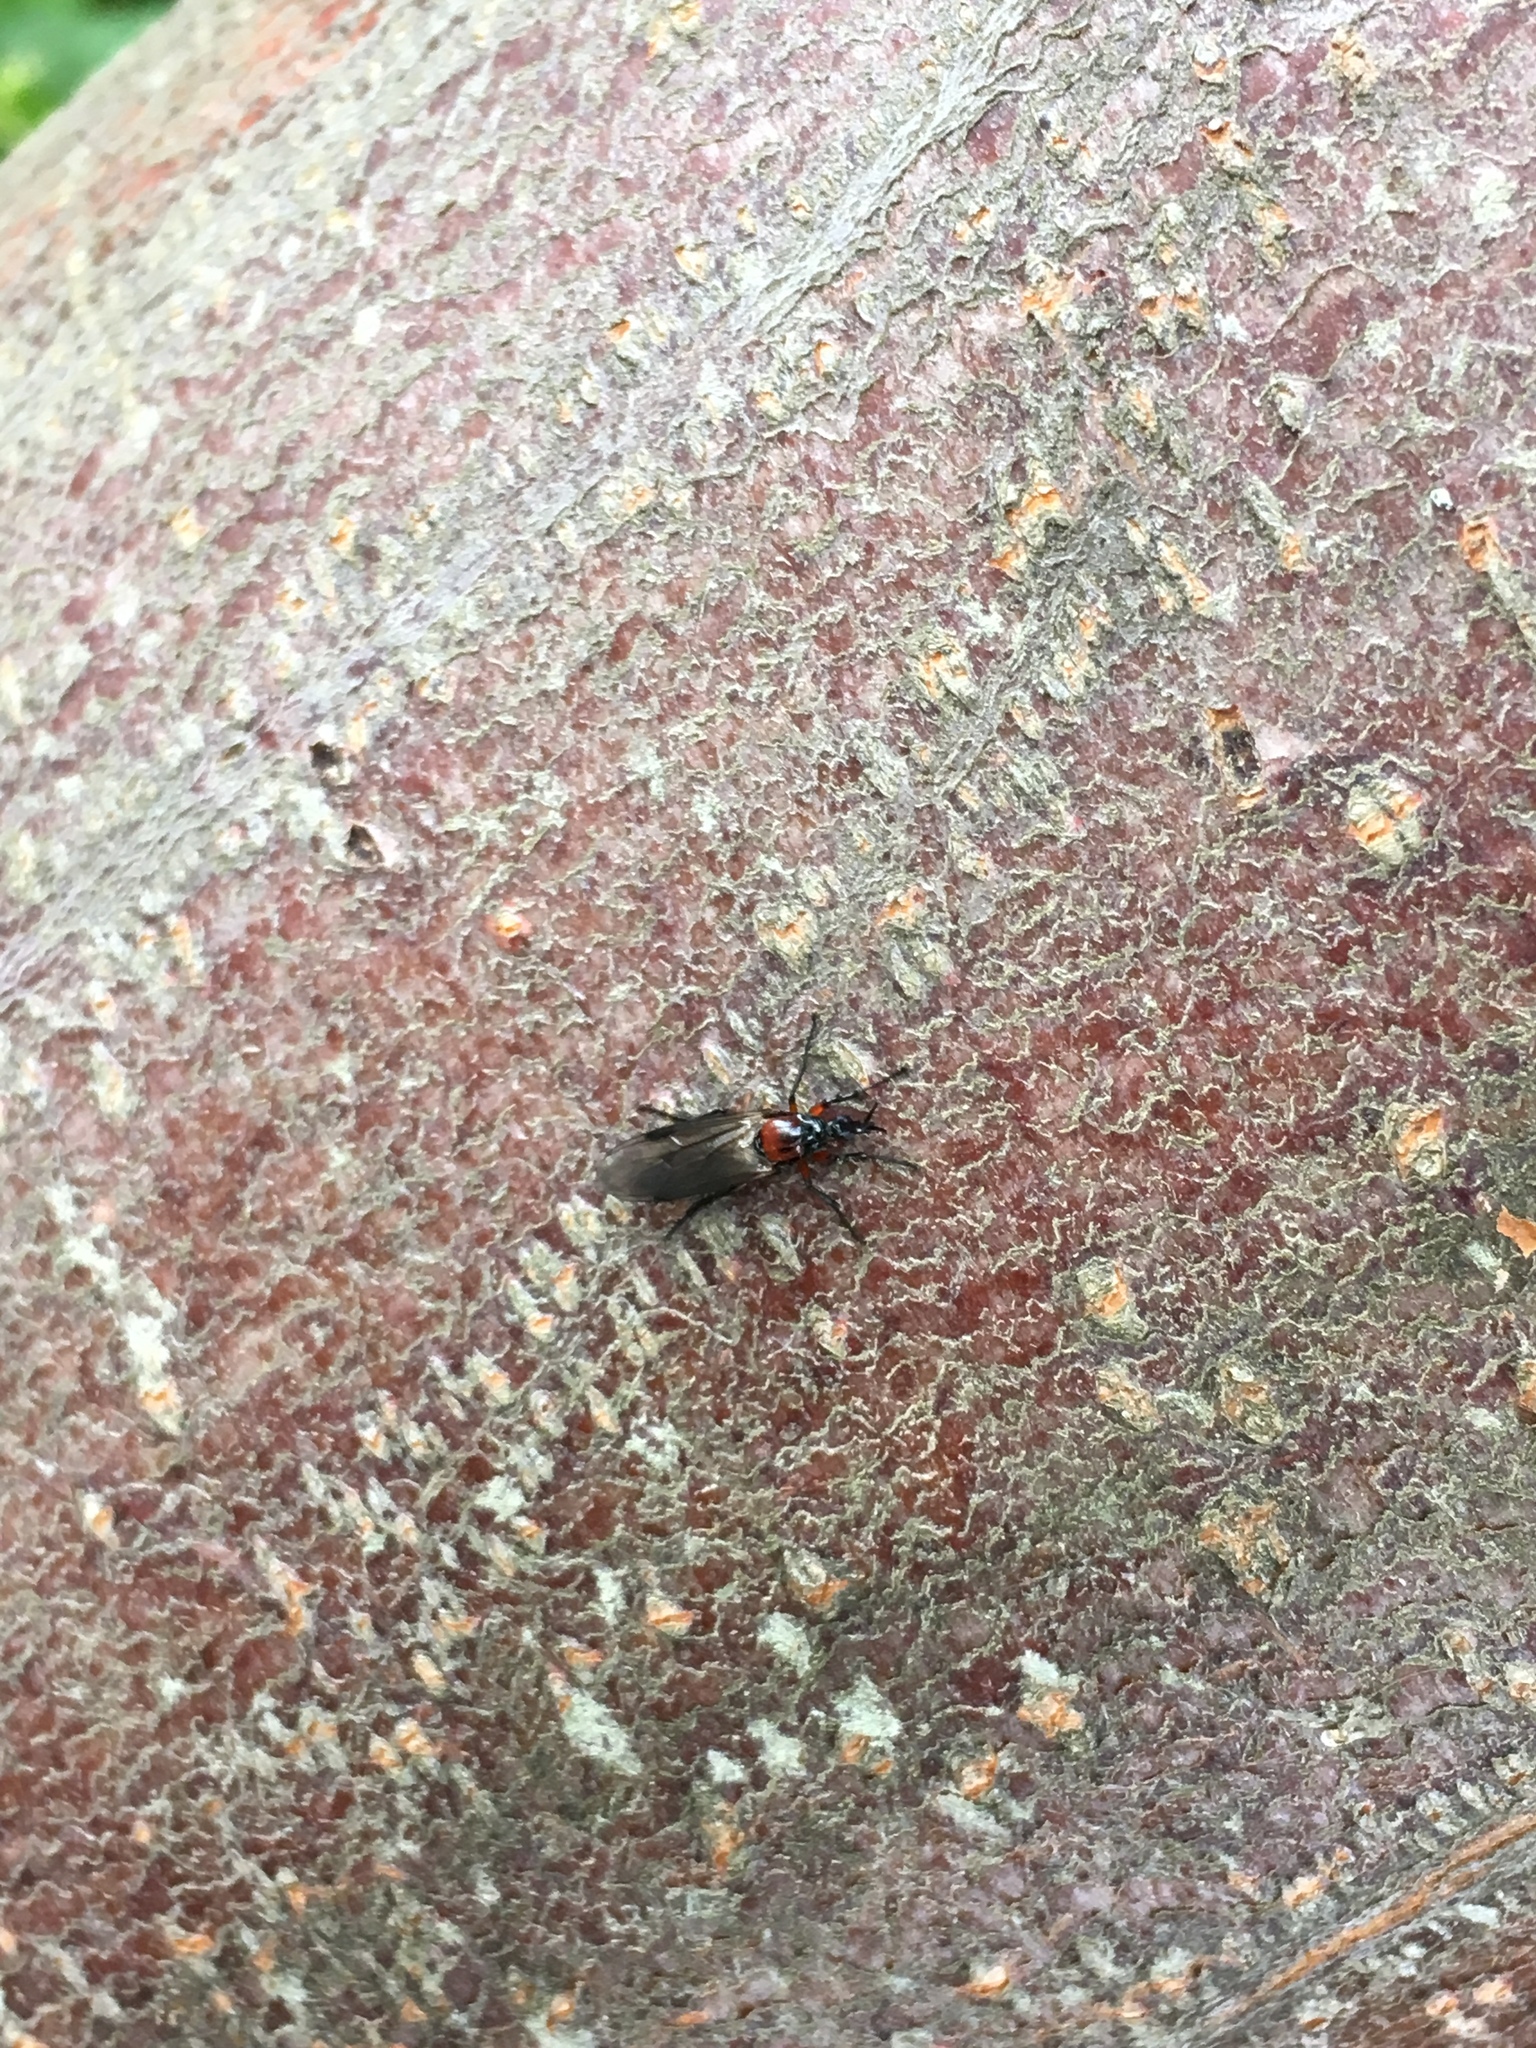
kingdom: Animalia
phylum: Arthropoda
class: Insecta
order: Diptera
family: Bibionidae
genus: Dilophus
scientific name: Dilophus nigrostigma
